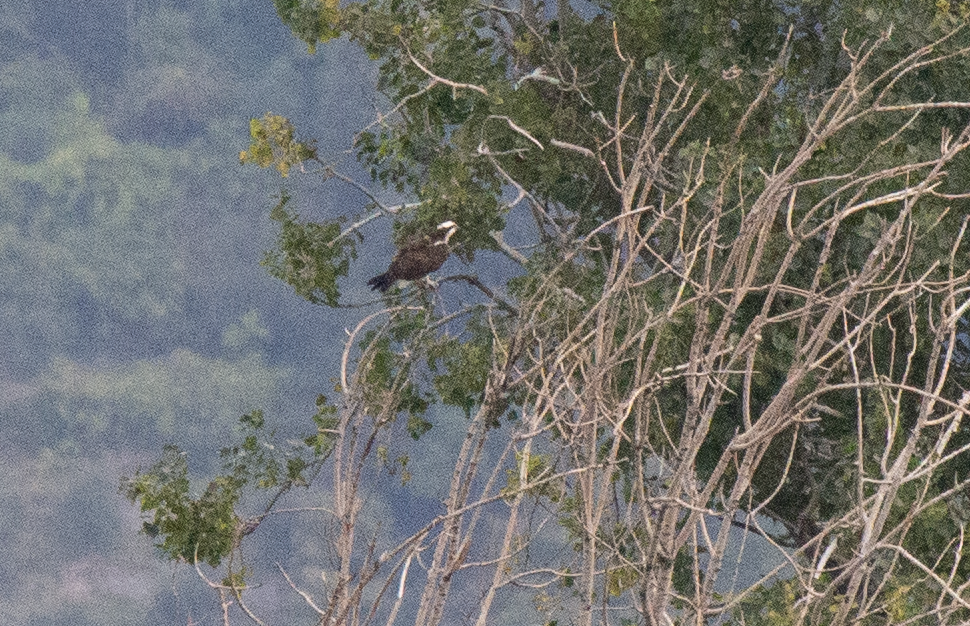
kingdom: Animalia
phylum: Chordata
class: Aves
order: Accipitriformes
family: Pandionidae
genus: Pandion
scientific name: Pandion haliaetus
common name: Osprey
